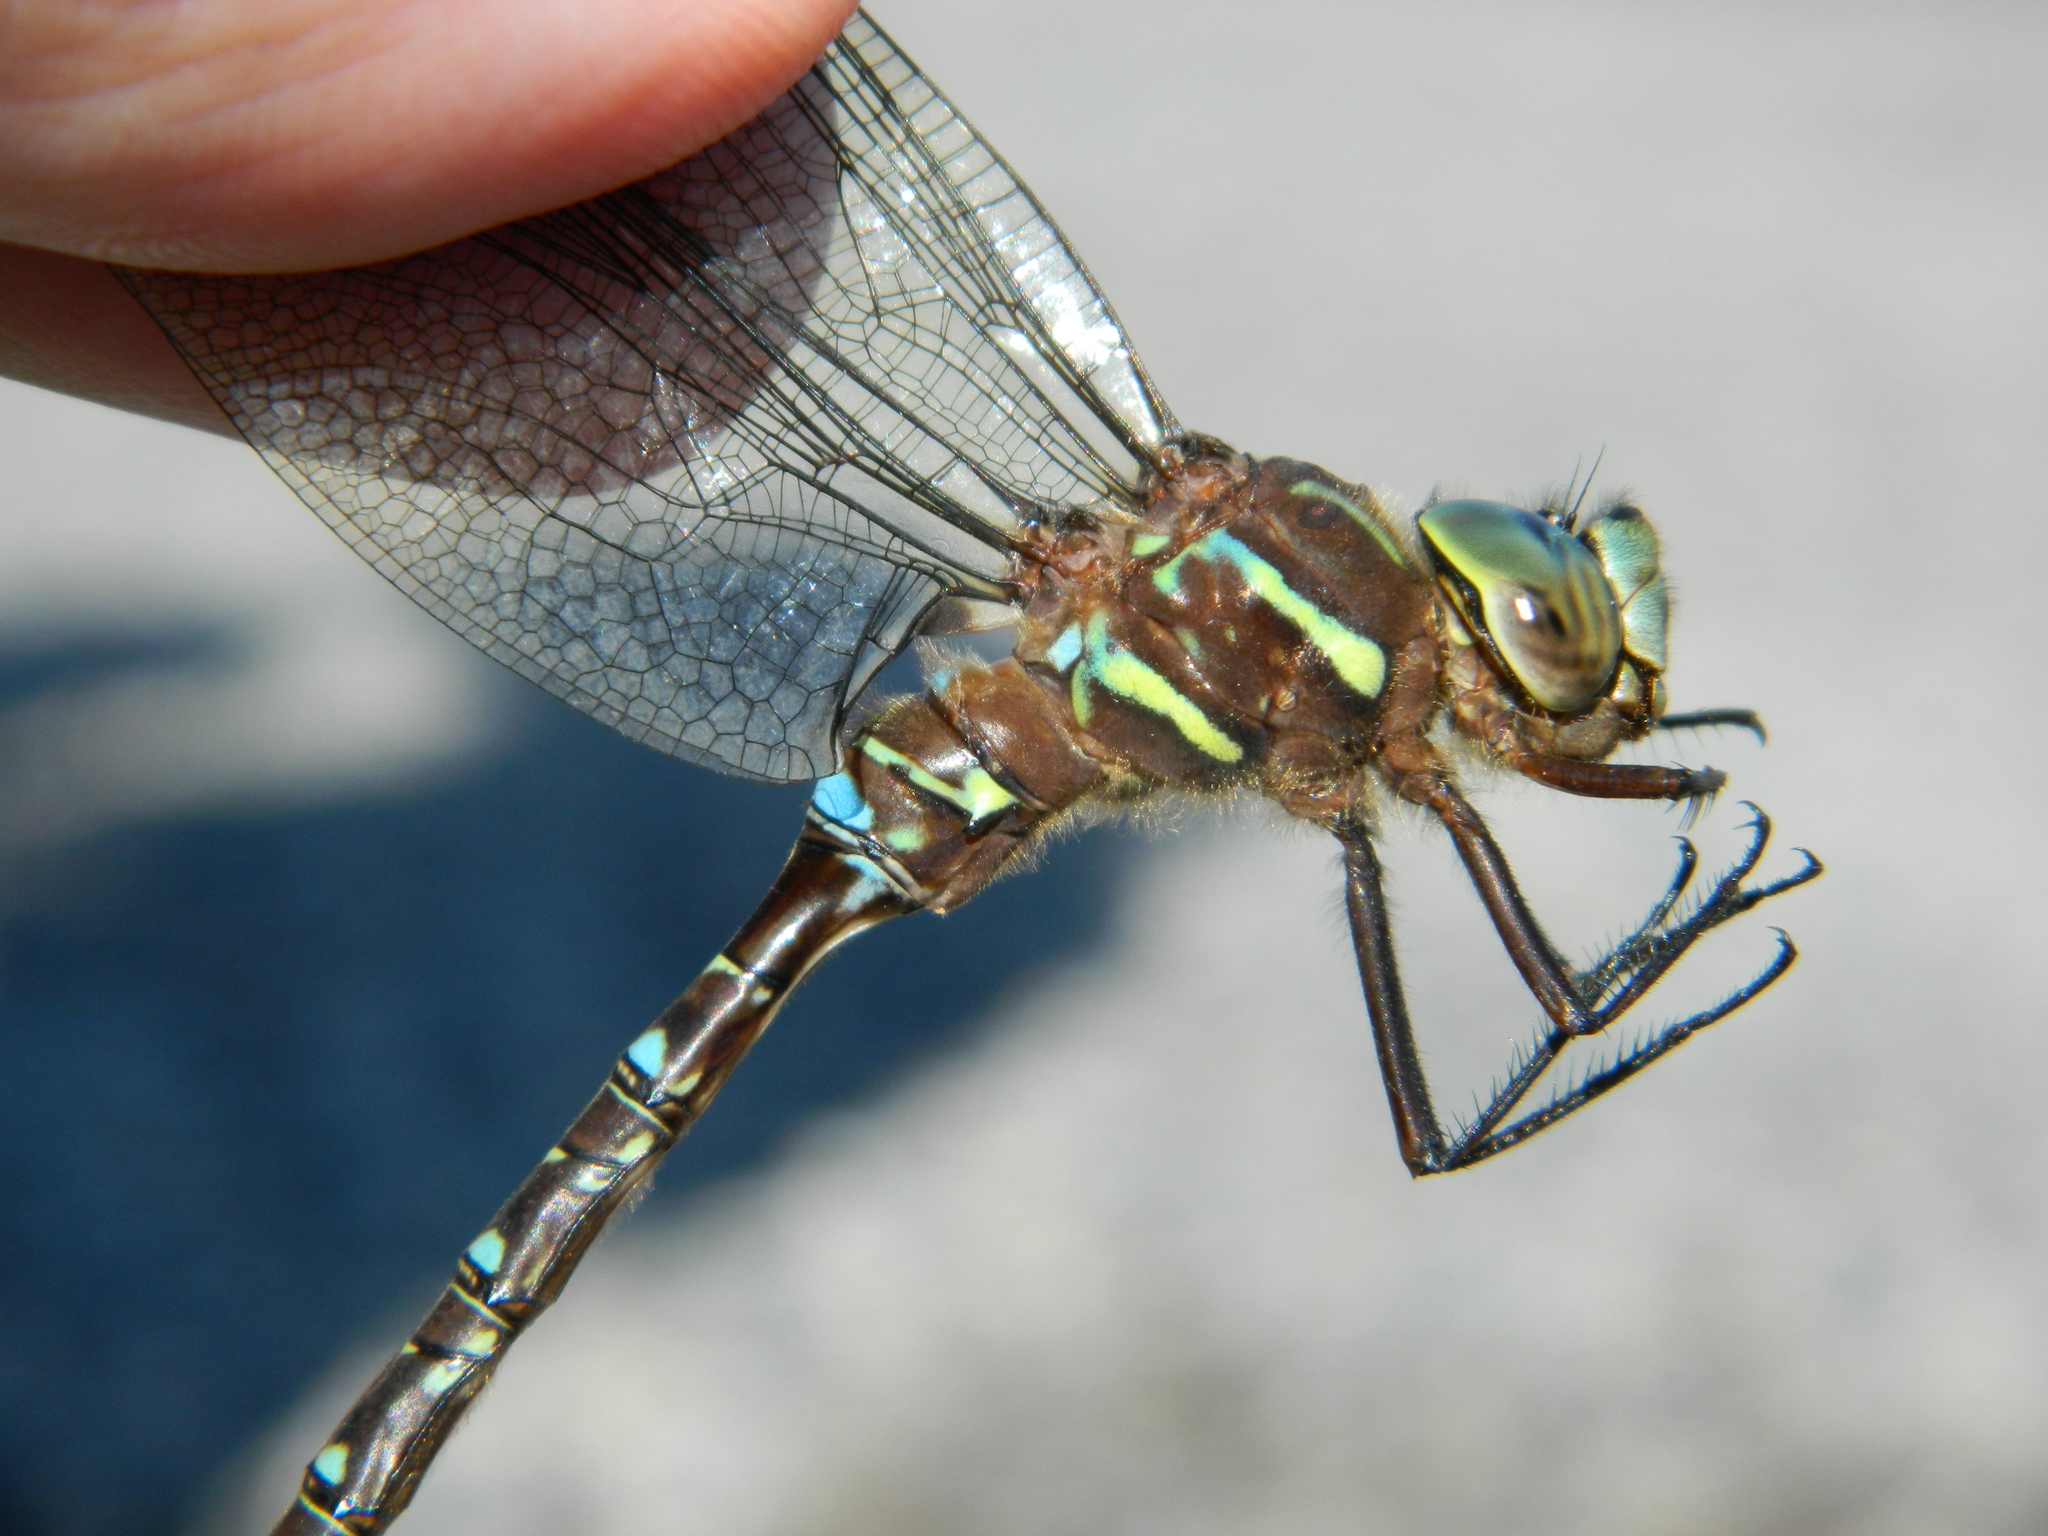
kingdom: Animalia
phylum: Arthropoda
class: Insecta
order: Odonata
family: Aeshnidae
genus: Aeshna
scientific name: Aeshna umbrosa
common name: Shadow darner
